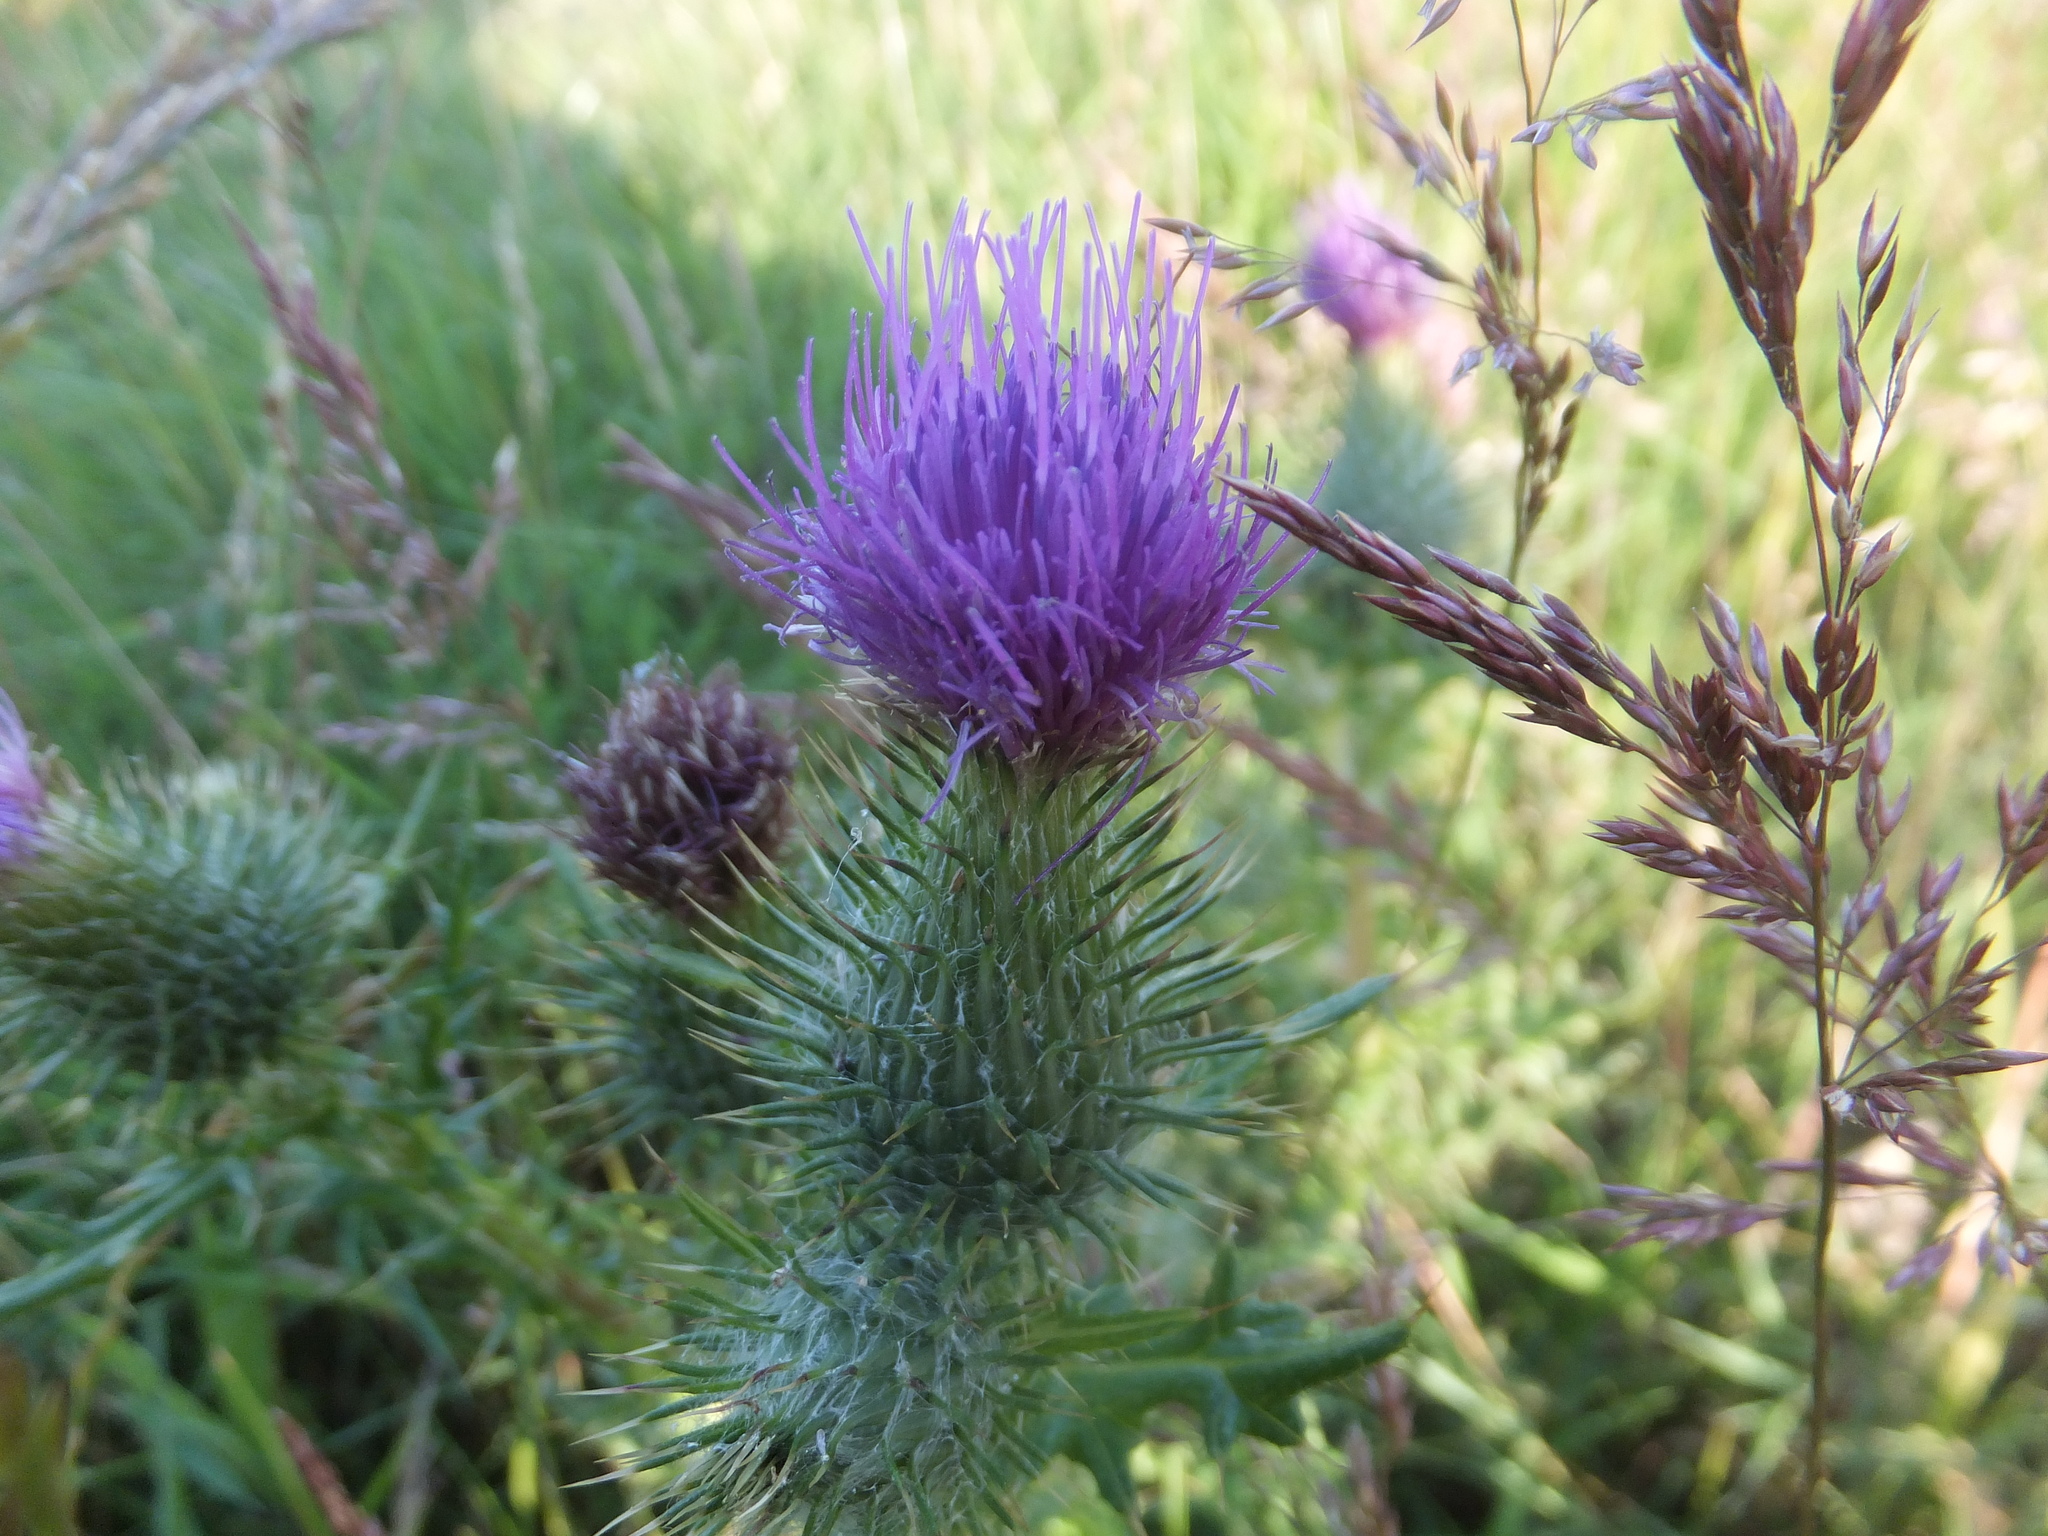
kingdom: Plantae
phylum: Tracheophyta
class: Magnoliopsida
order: Asterales
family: Asteraceae
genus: Cirsium
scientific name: Cirsium vulgare
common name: Bull thistle
